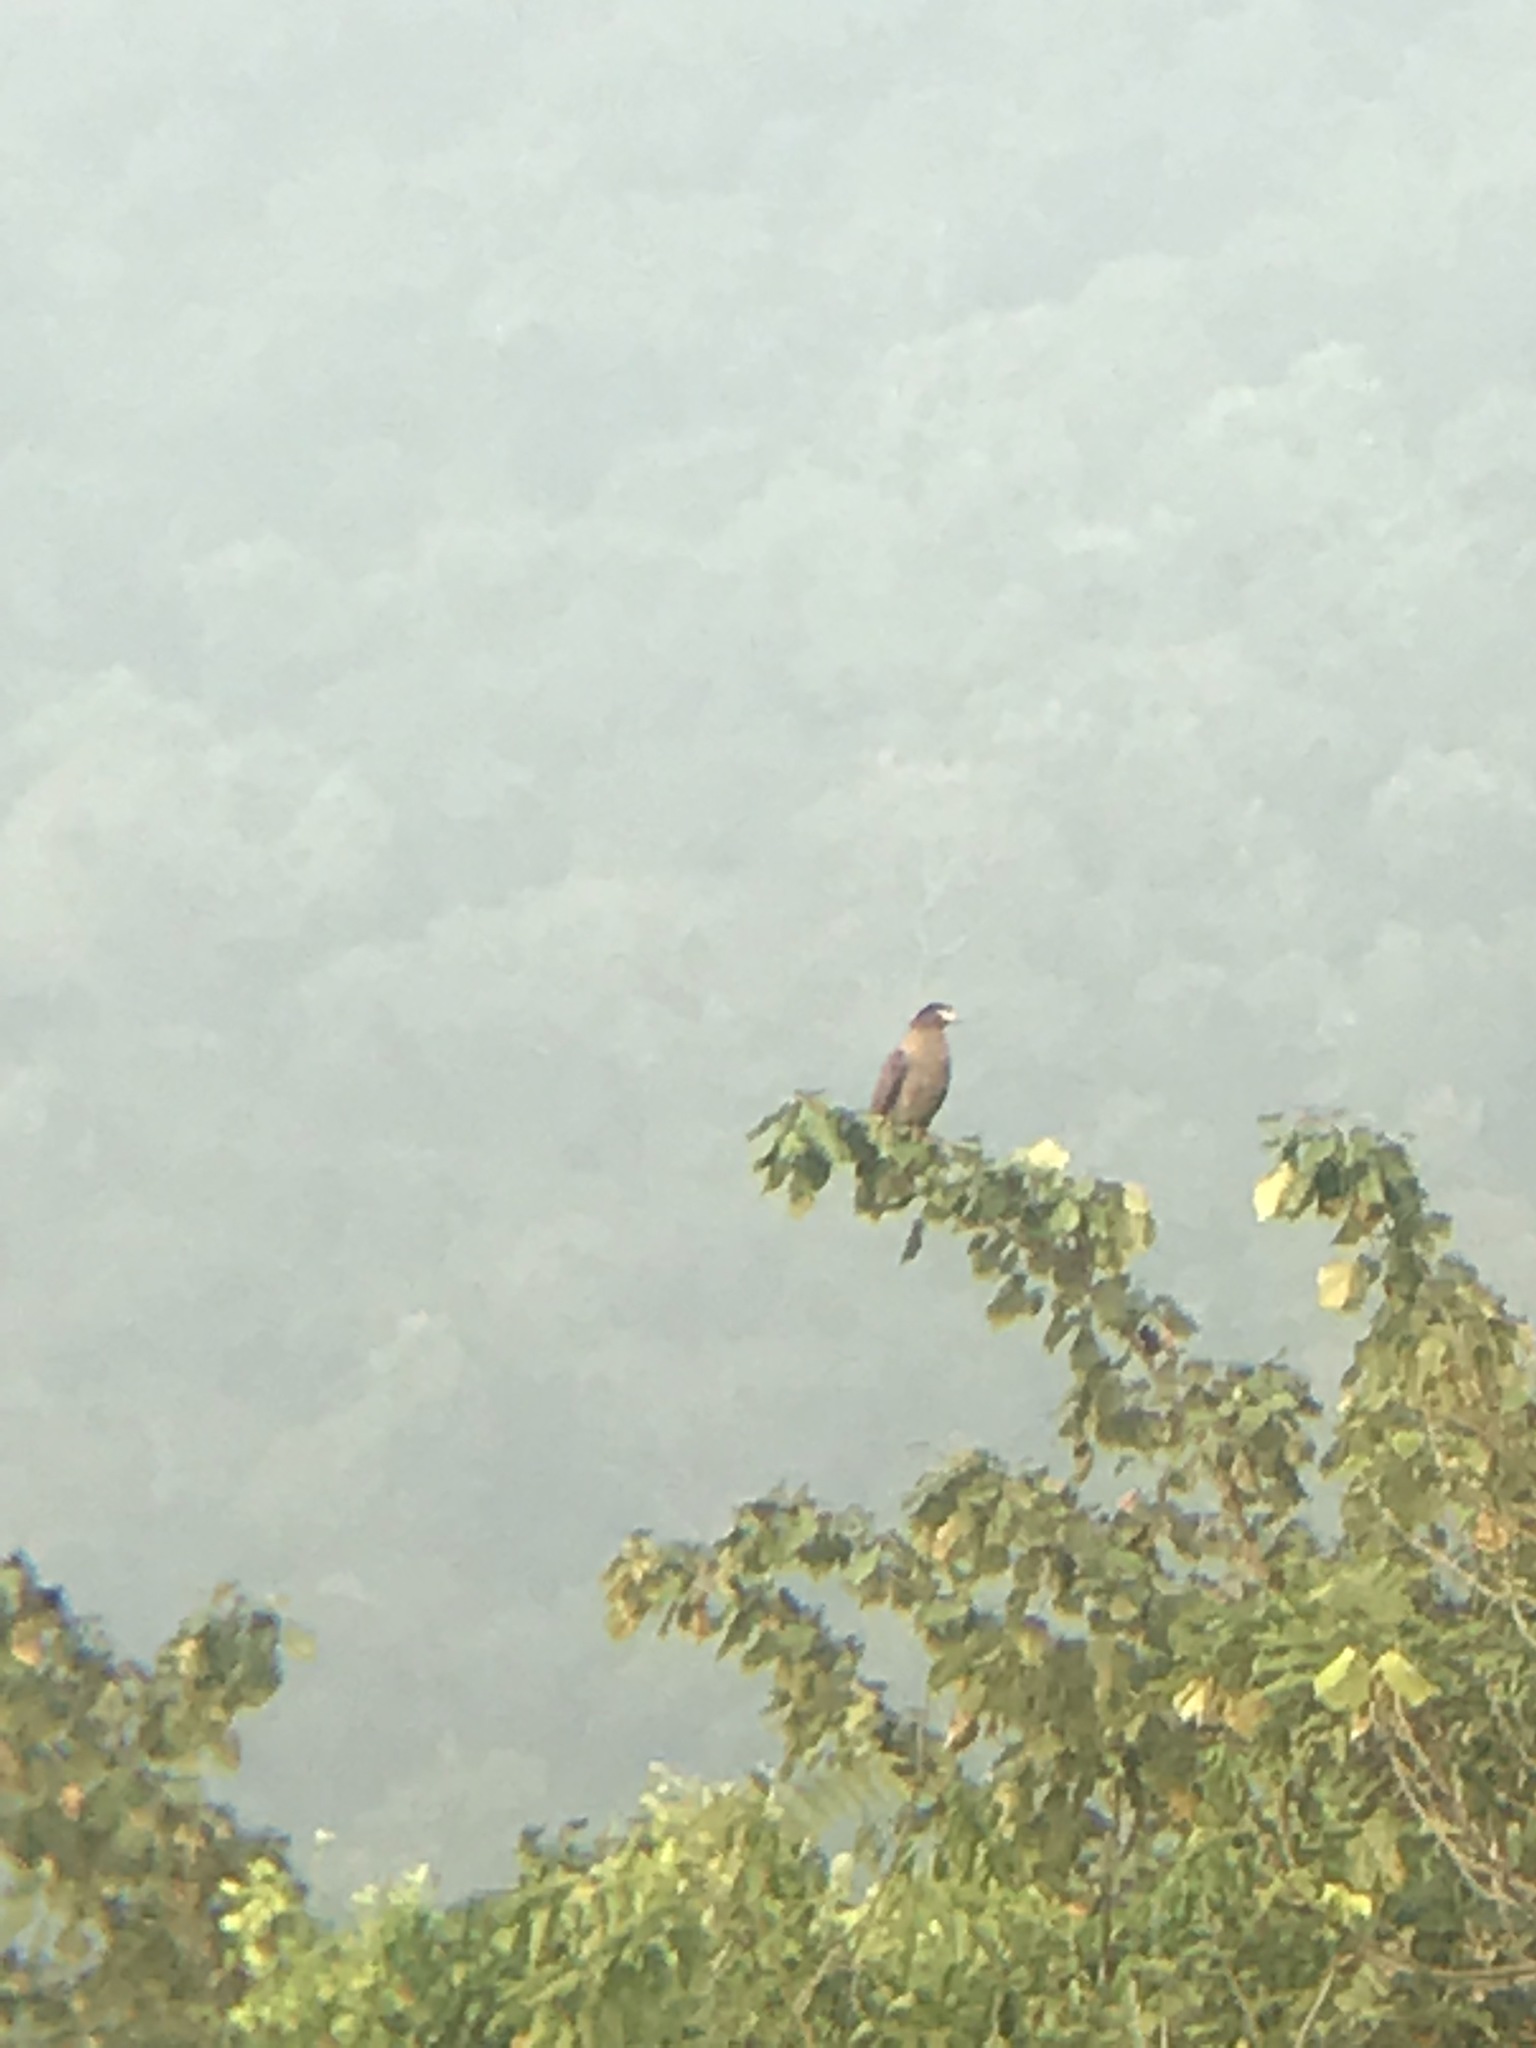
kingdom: Animalia
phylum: Chordata
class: Aves
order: Accipitriformes
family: Accipitridae
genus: Spilornis
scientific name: Spilornis cheela
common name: Crested serpent eagle
